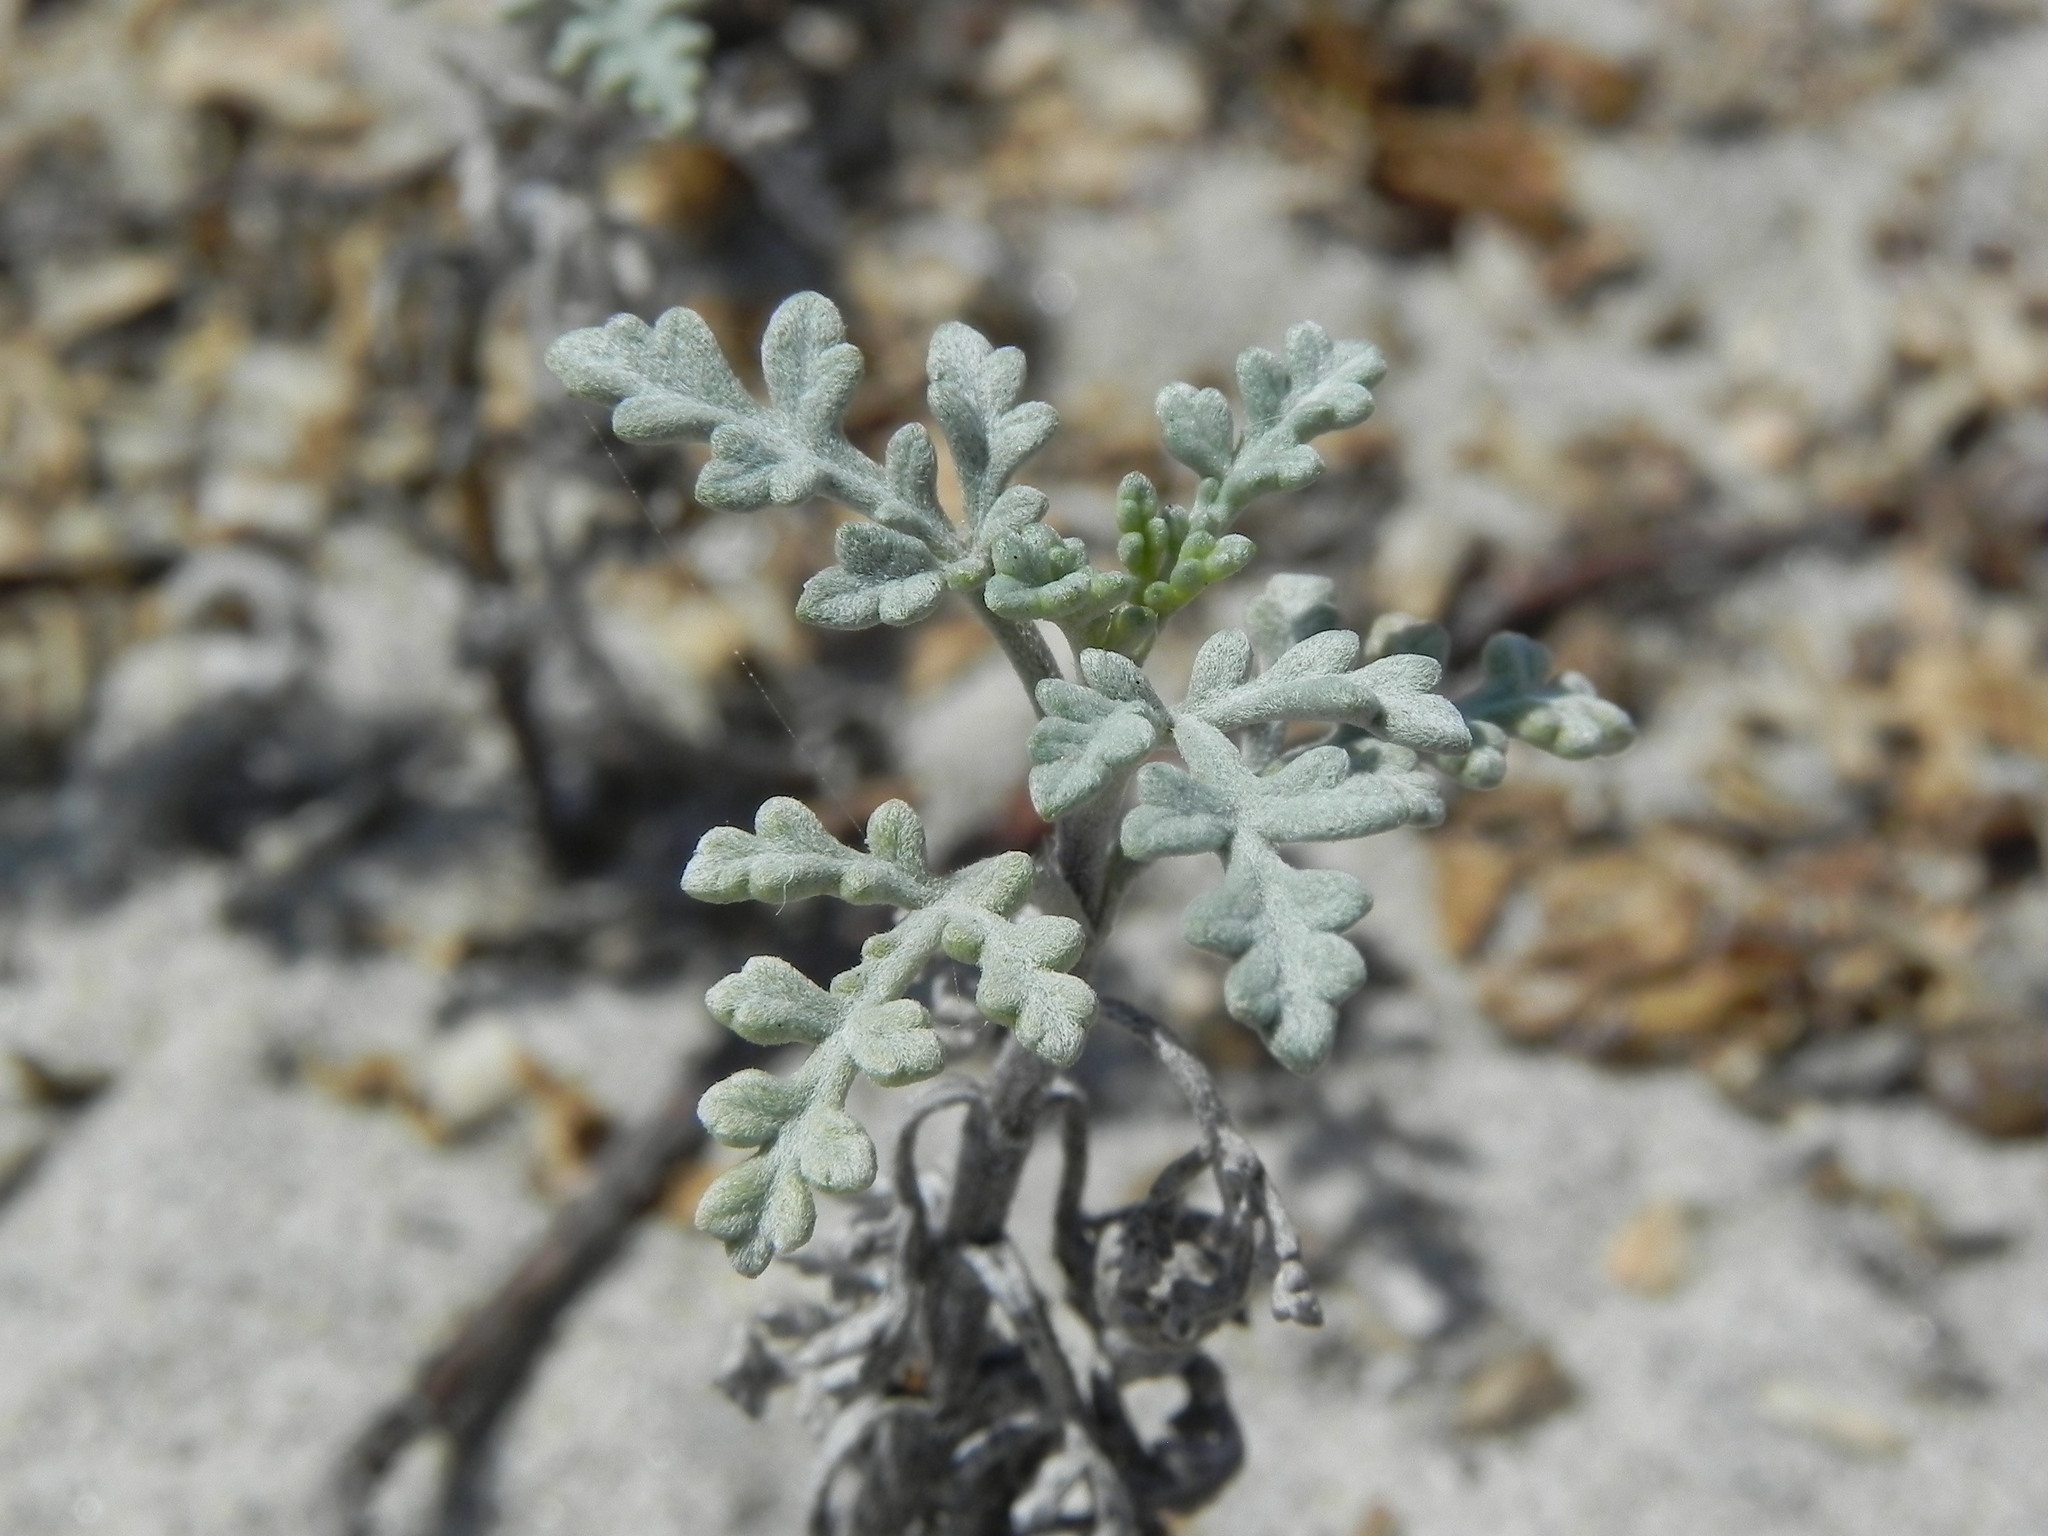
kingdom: Plantae
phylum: Tracheophyta
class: Magnoliopsida
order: Asterales
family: Asteraceae
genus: Ambrosia
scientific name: Ambrosia chamissonis
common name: Beachbur
